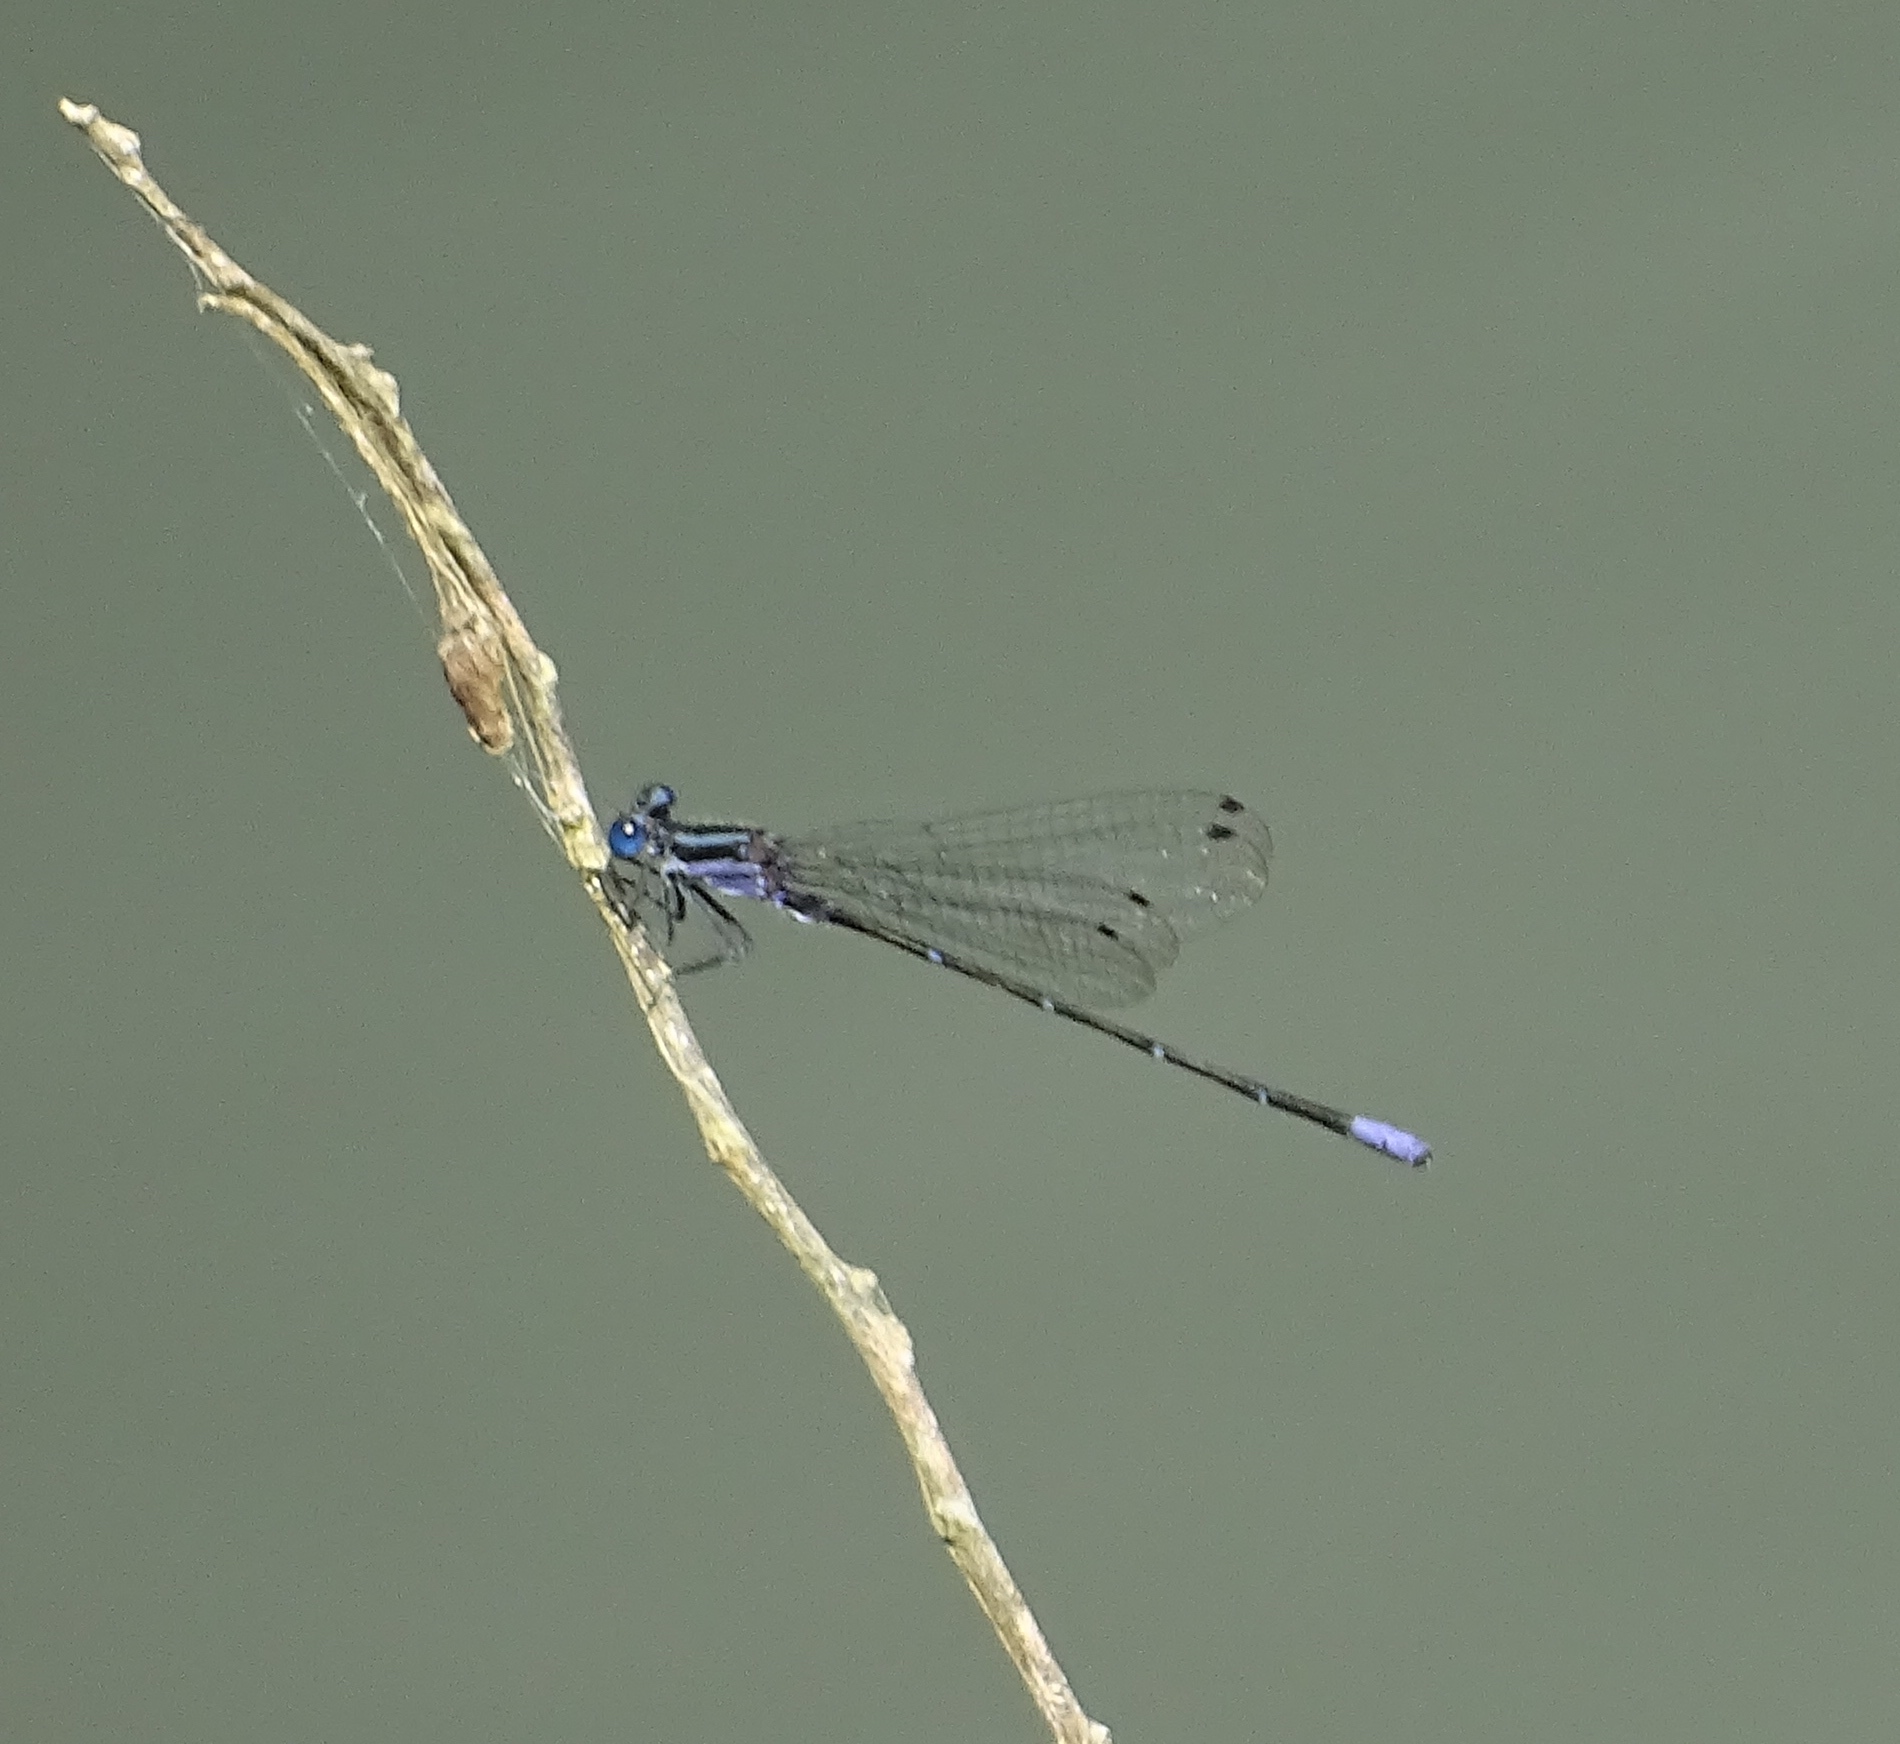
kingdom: Animalia
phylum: Arthropoda
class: Insecta
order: Odonata
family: Coenagrionidae
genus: Argia
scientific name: Argia pulla
